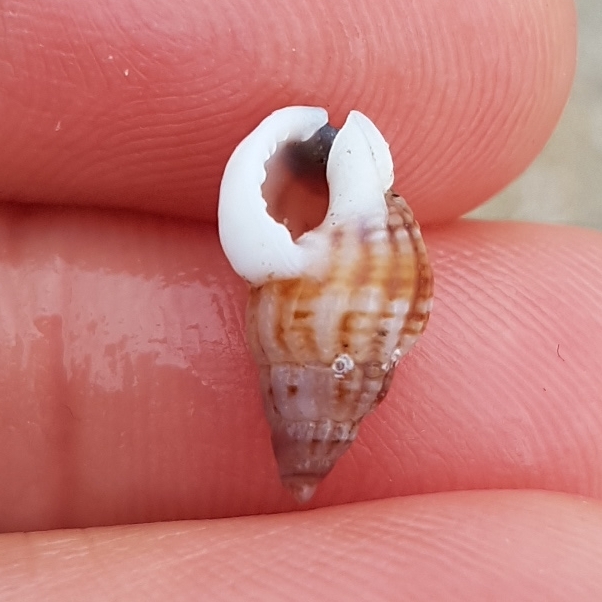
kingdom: Animalia
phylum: Mollusca
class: Gastropoda
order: Neogastropoda
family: Nassariidae
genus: Tritia
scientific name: Tritia incrassata
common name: Thick-lipped dog whelk
